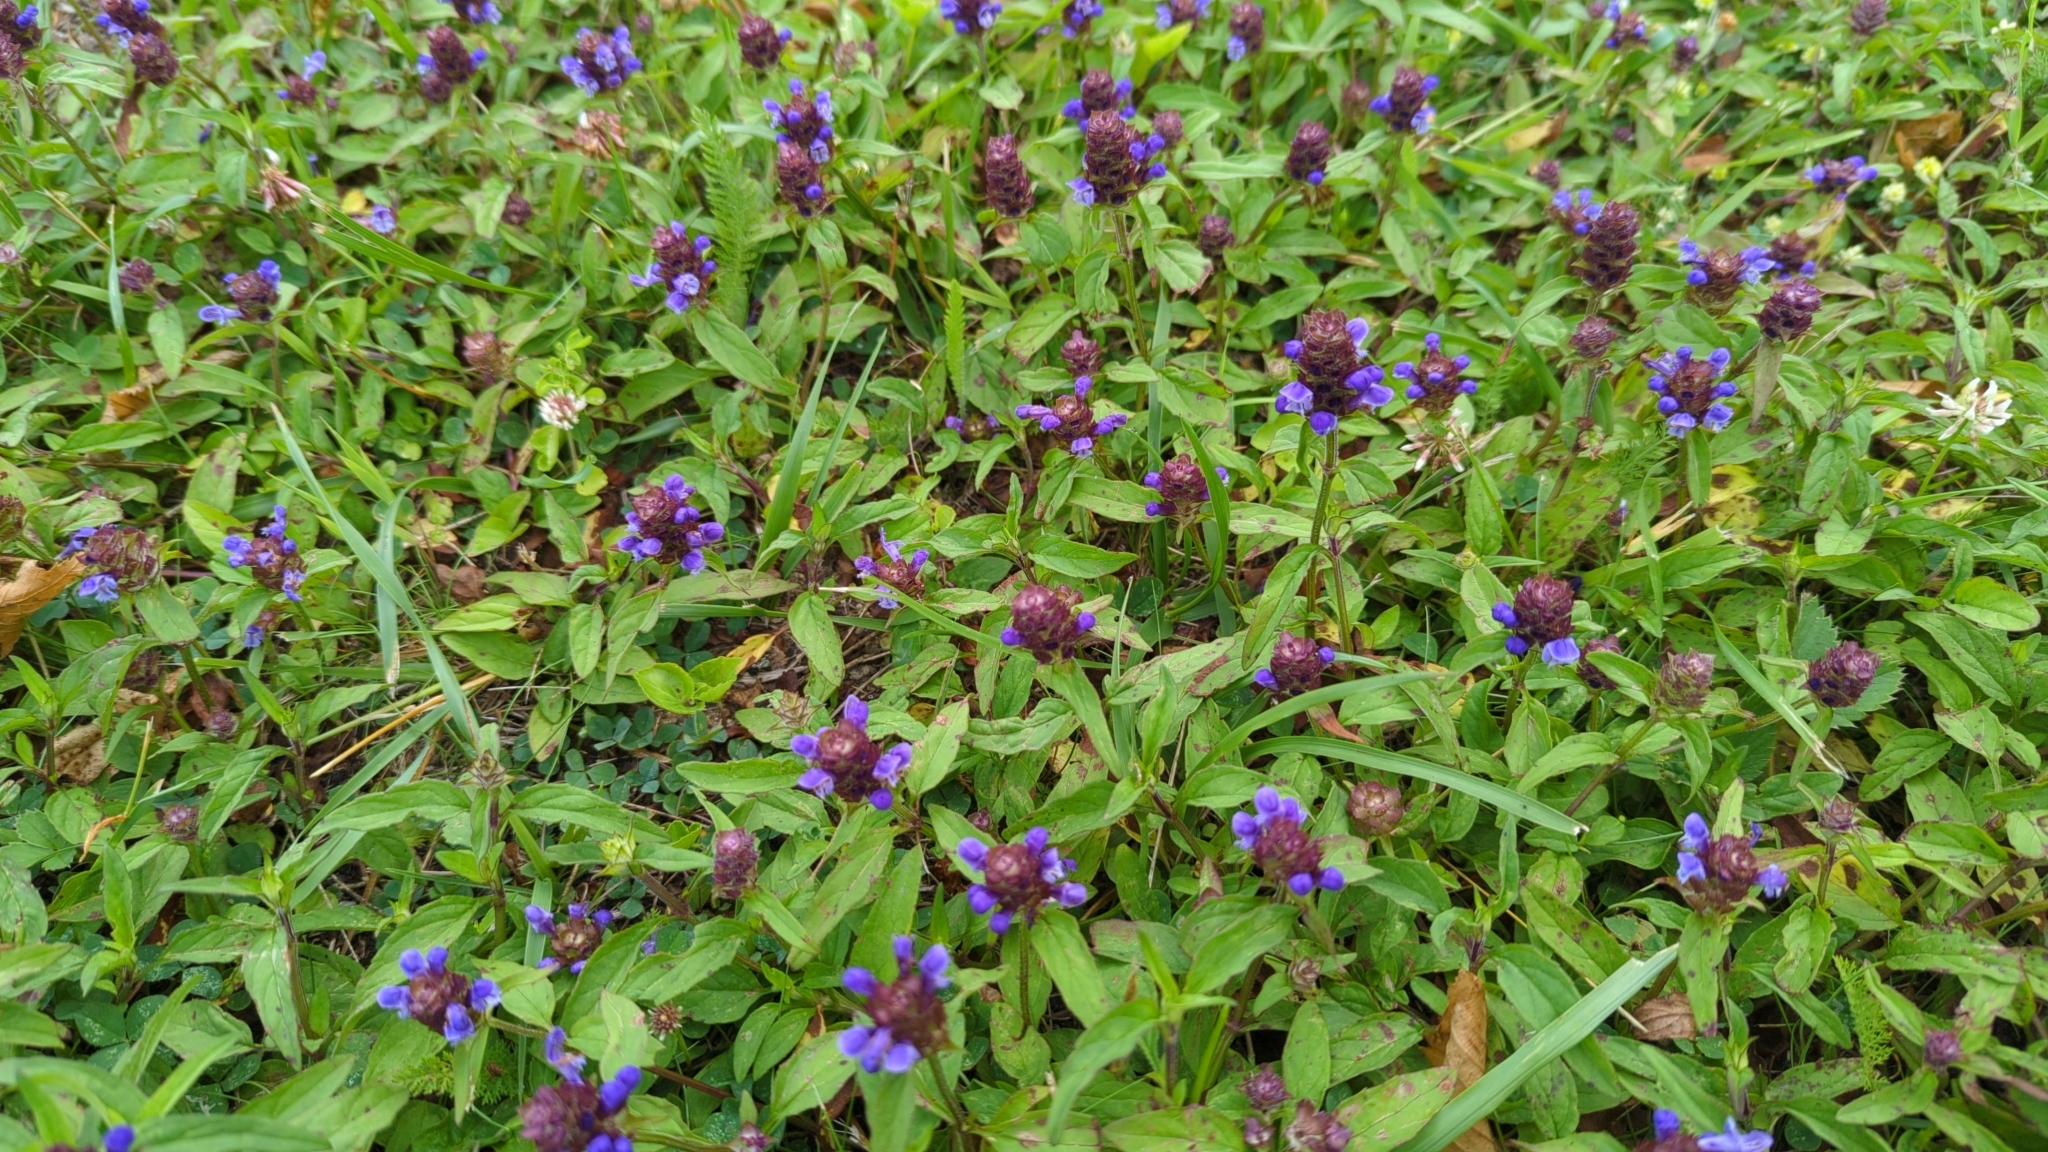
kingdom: Plantae
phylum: Tracheophyta
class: Magnoliopsida
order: Lamiales
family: Lamiaceae
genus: Prunella
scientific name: Prunella vulgaris
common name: Heal-all
